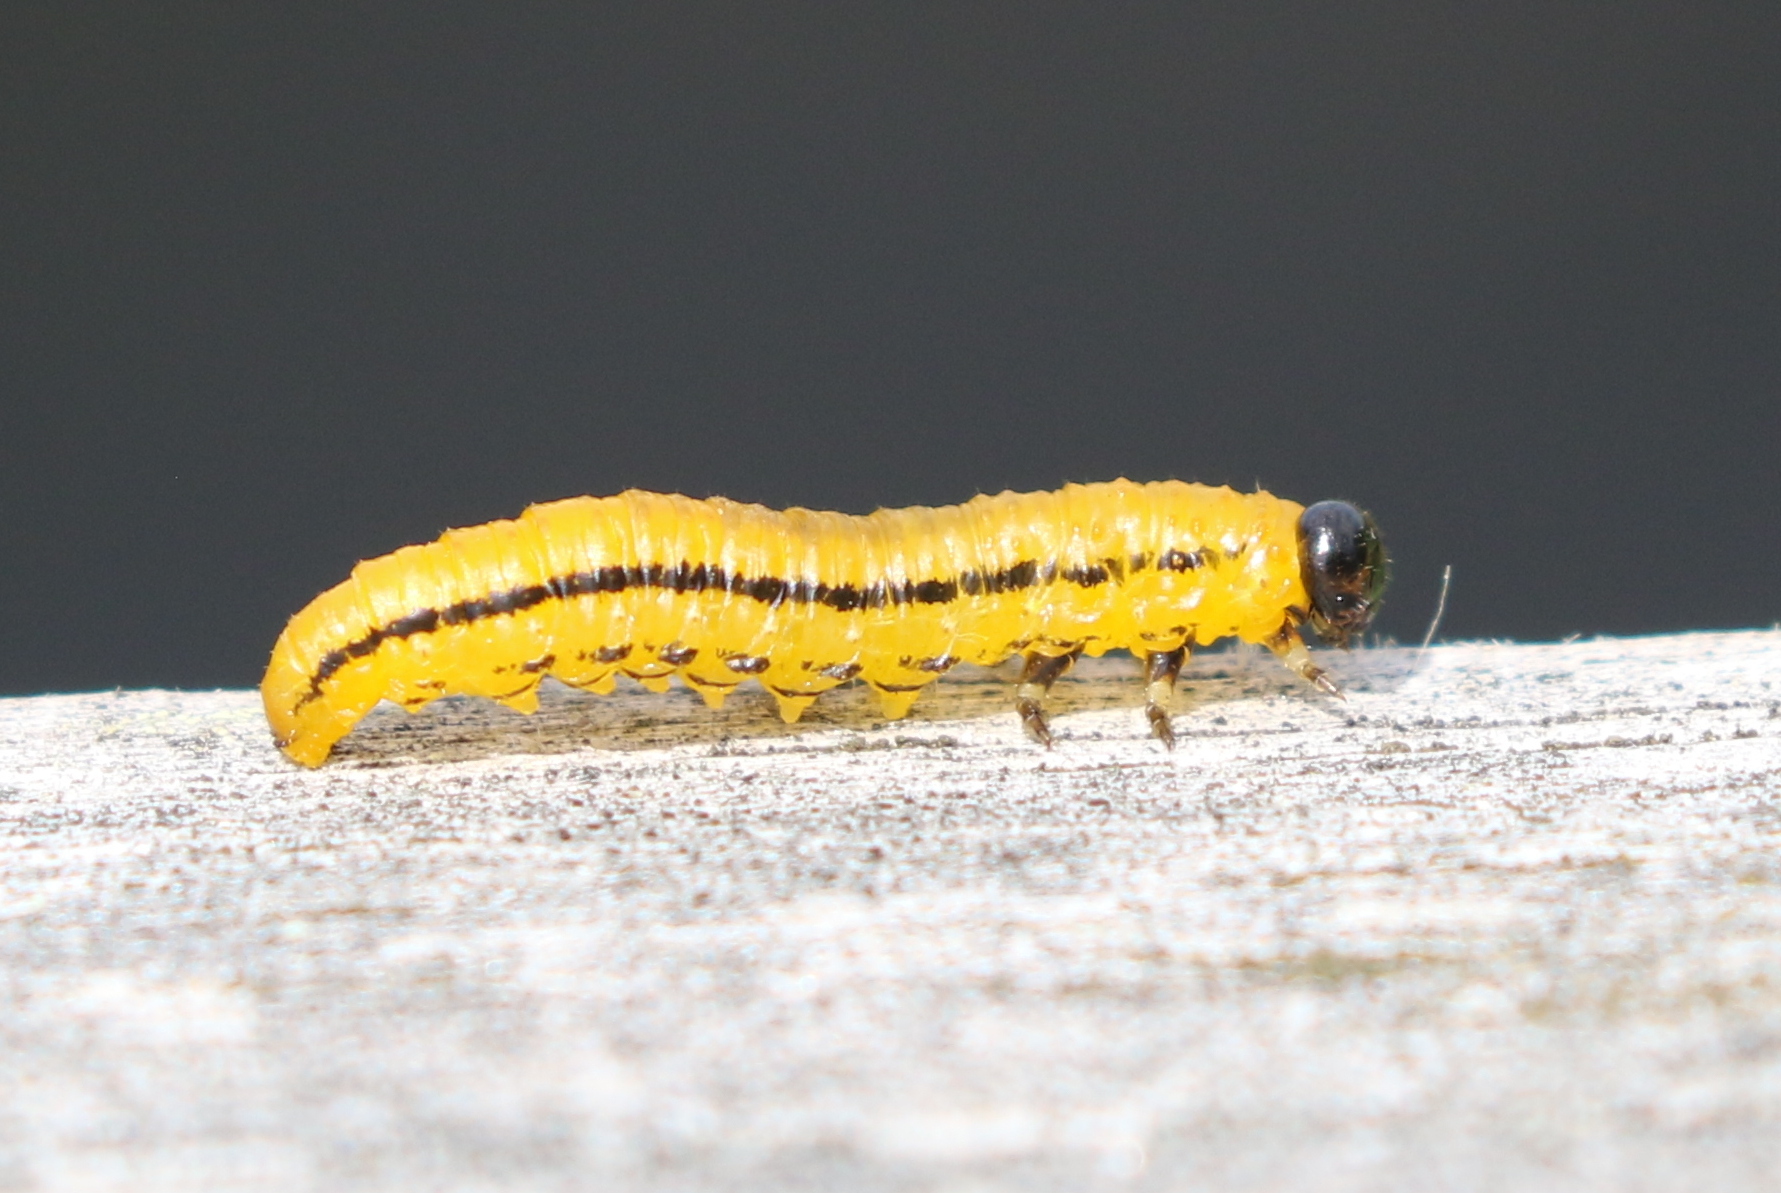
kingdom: Animalia
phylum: Arthropoda
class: Insecta
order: Hymenoptera
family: Tenthredinidae
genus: Hemichroa
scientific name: Hemichroa crocea
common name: Striped alder sawfly
